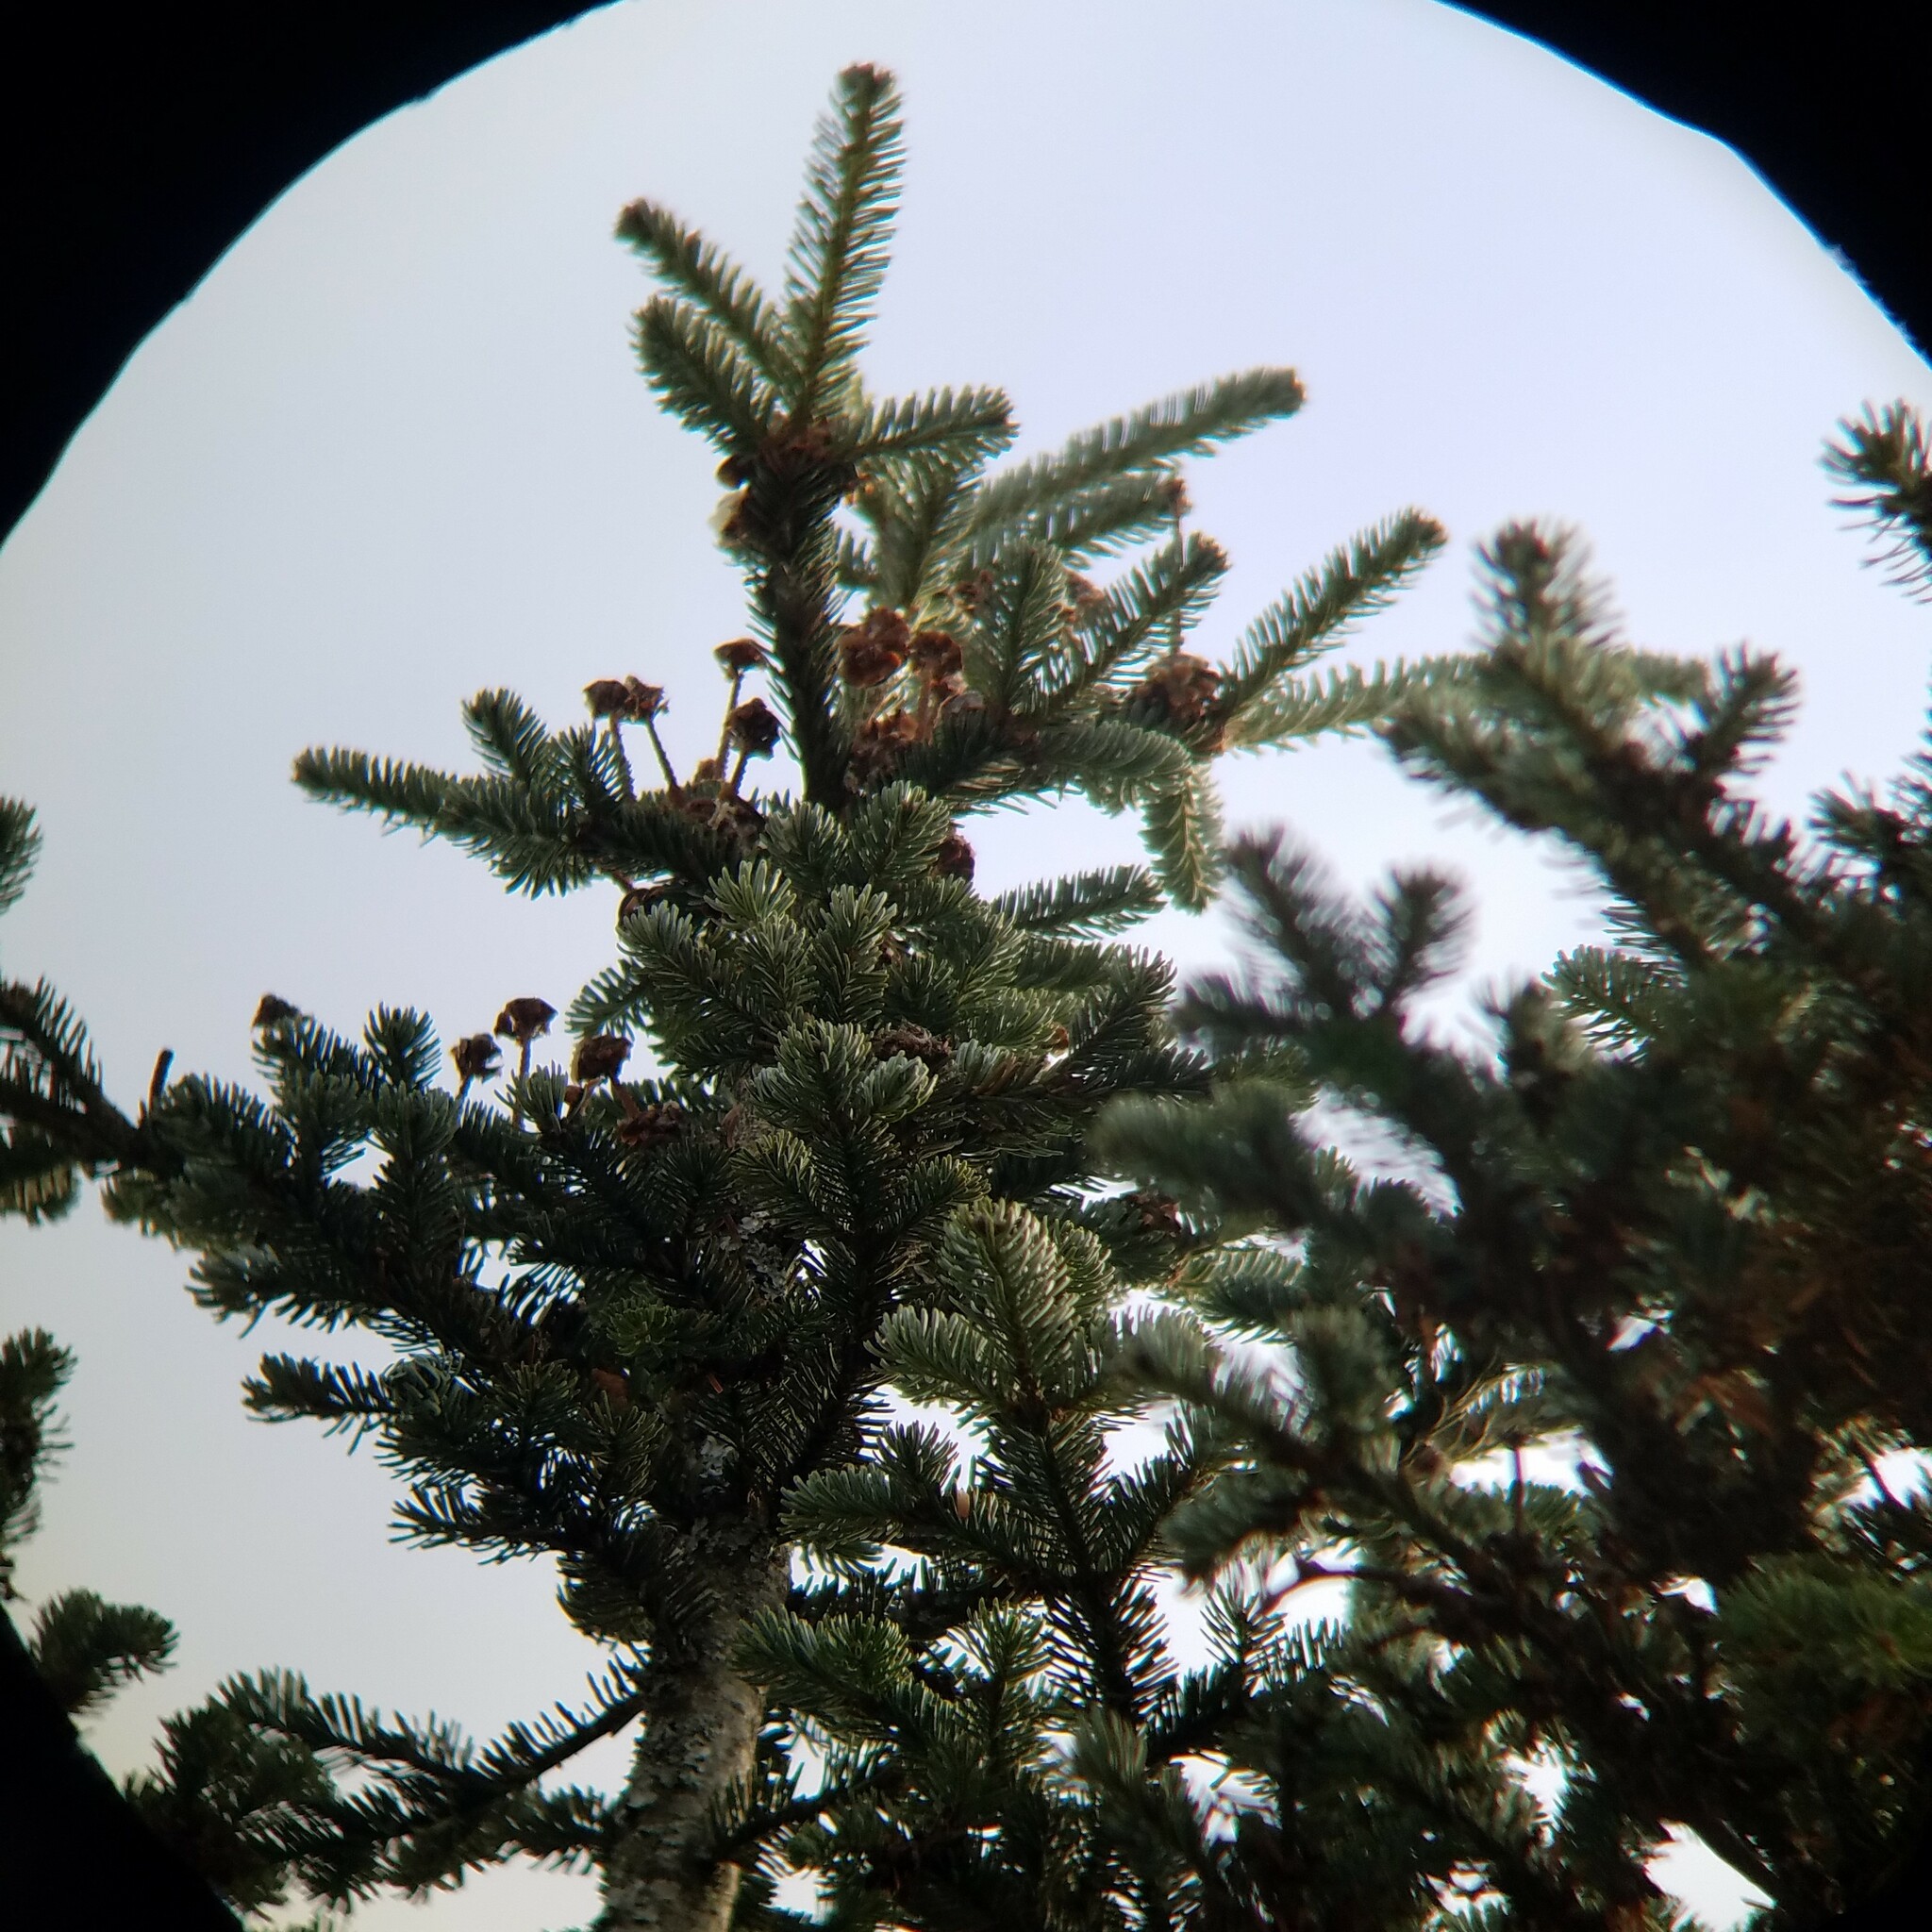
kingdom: Plantae
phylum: Tracheophyta
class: Pinopsida
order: Pinales
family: Pinaceae
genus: Abies
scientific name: Abies fraseri
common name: Fraser fir
